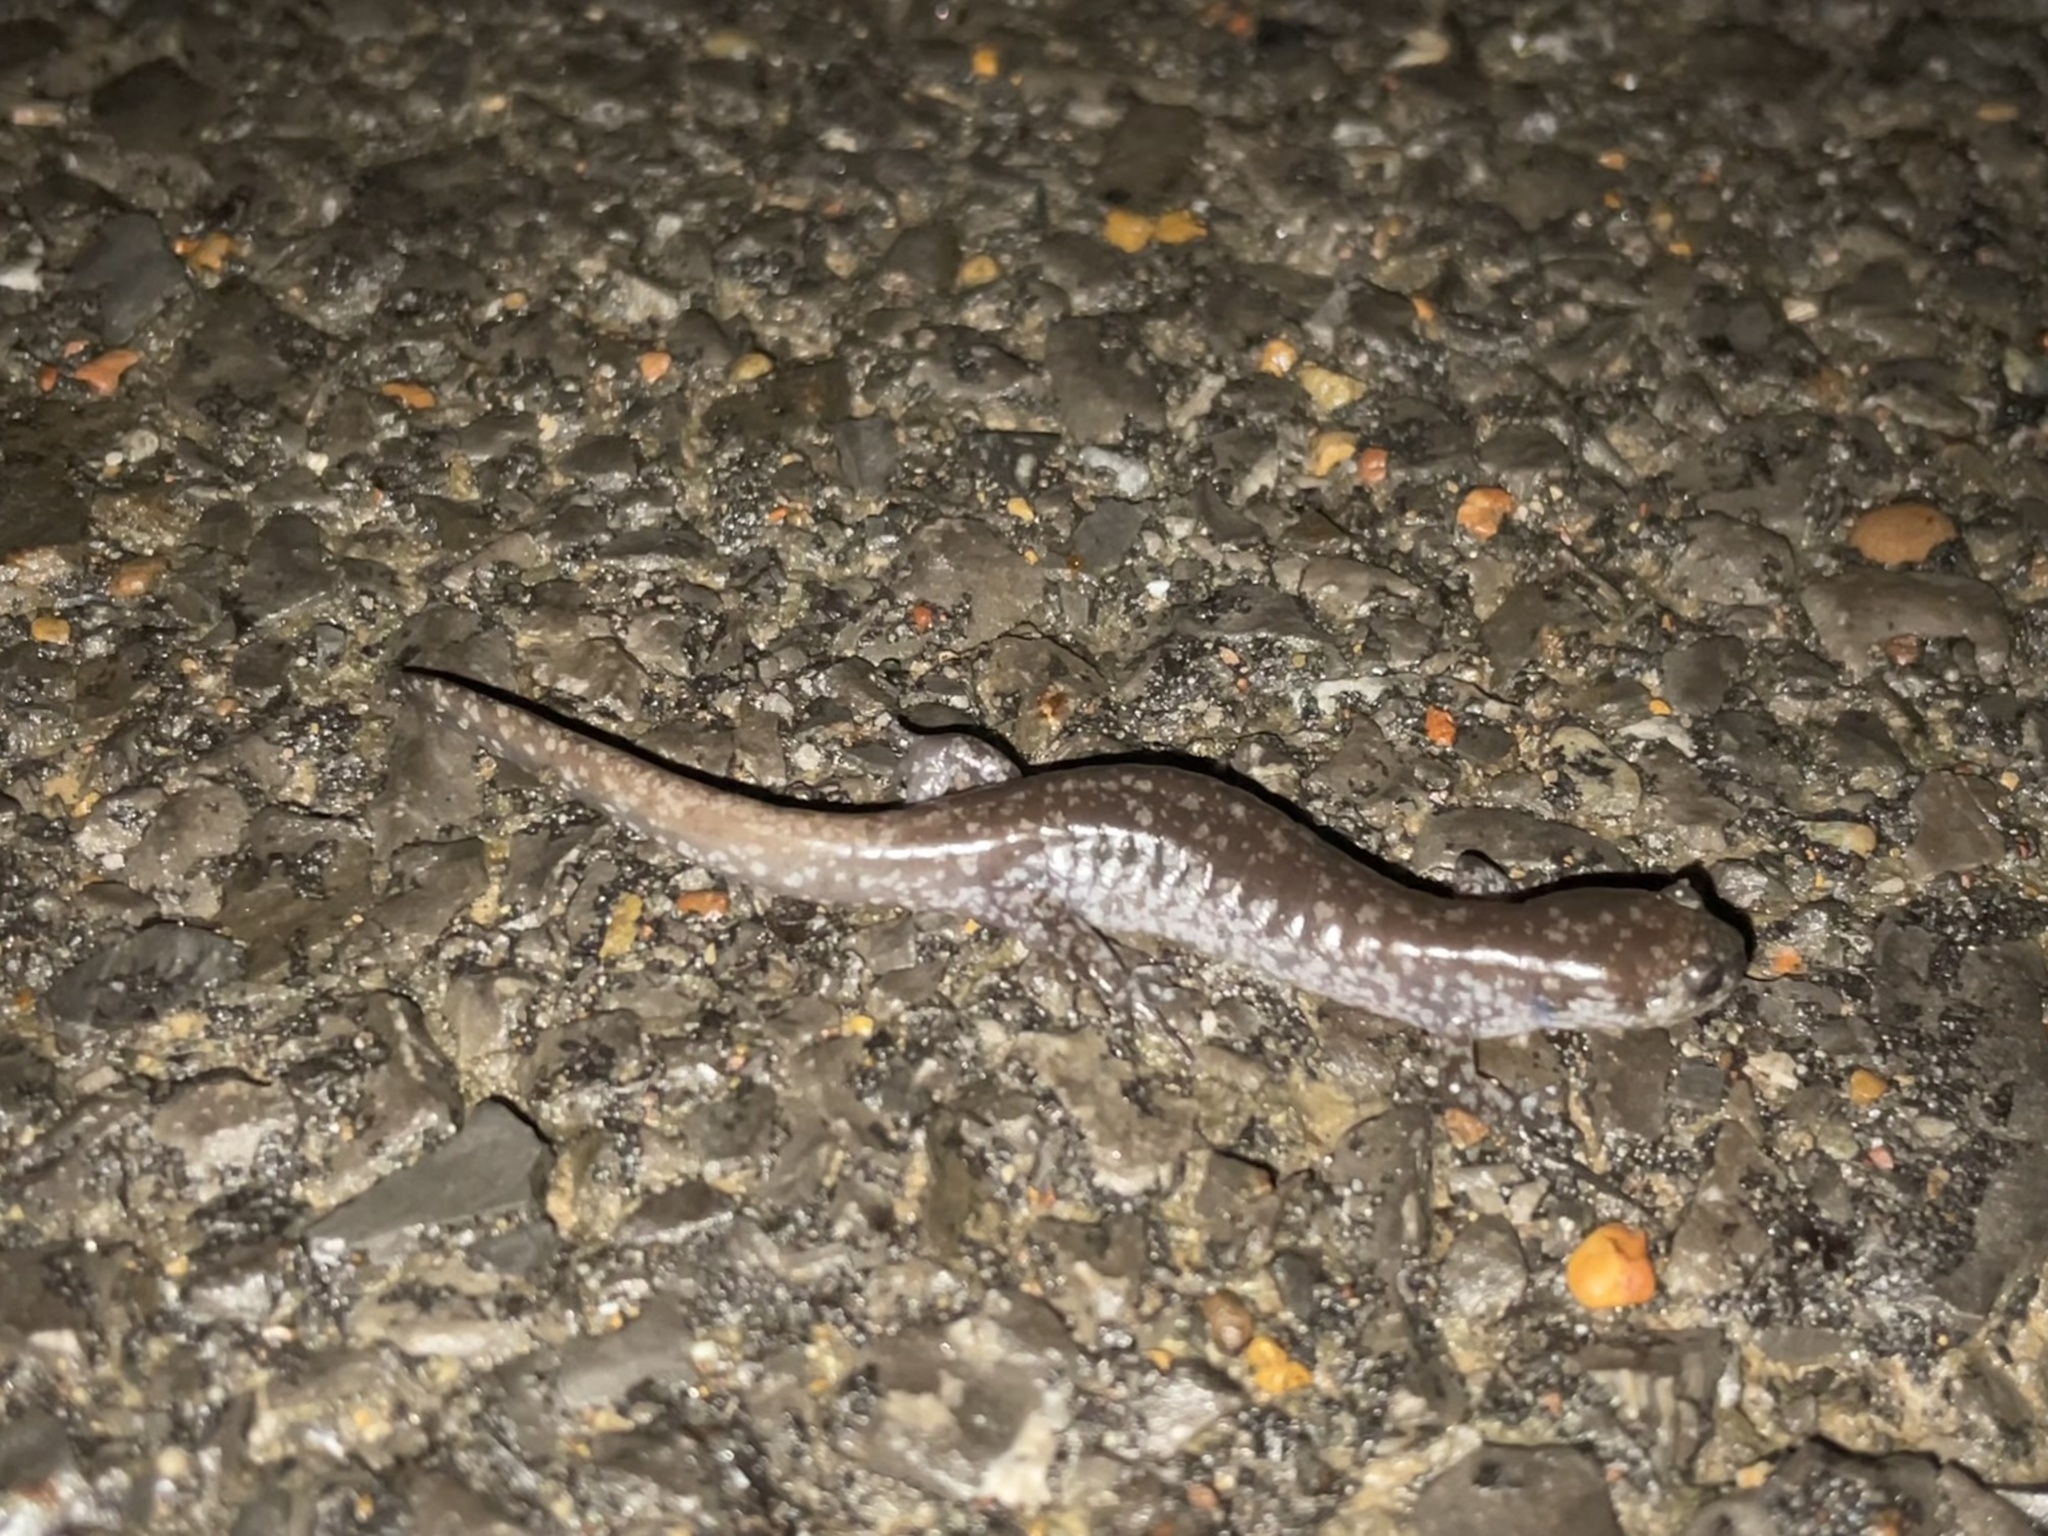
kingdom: Animalia
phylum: Chordata
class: Amphibia
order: Caudata
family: Ambystomatidae
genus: Ambystoma
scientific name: Ambystoma texanum
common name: Small-mouth salamander
